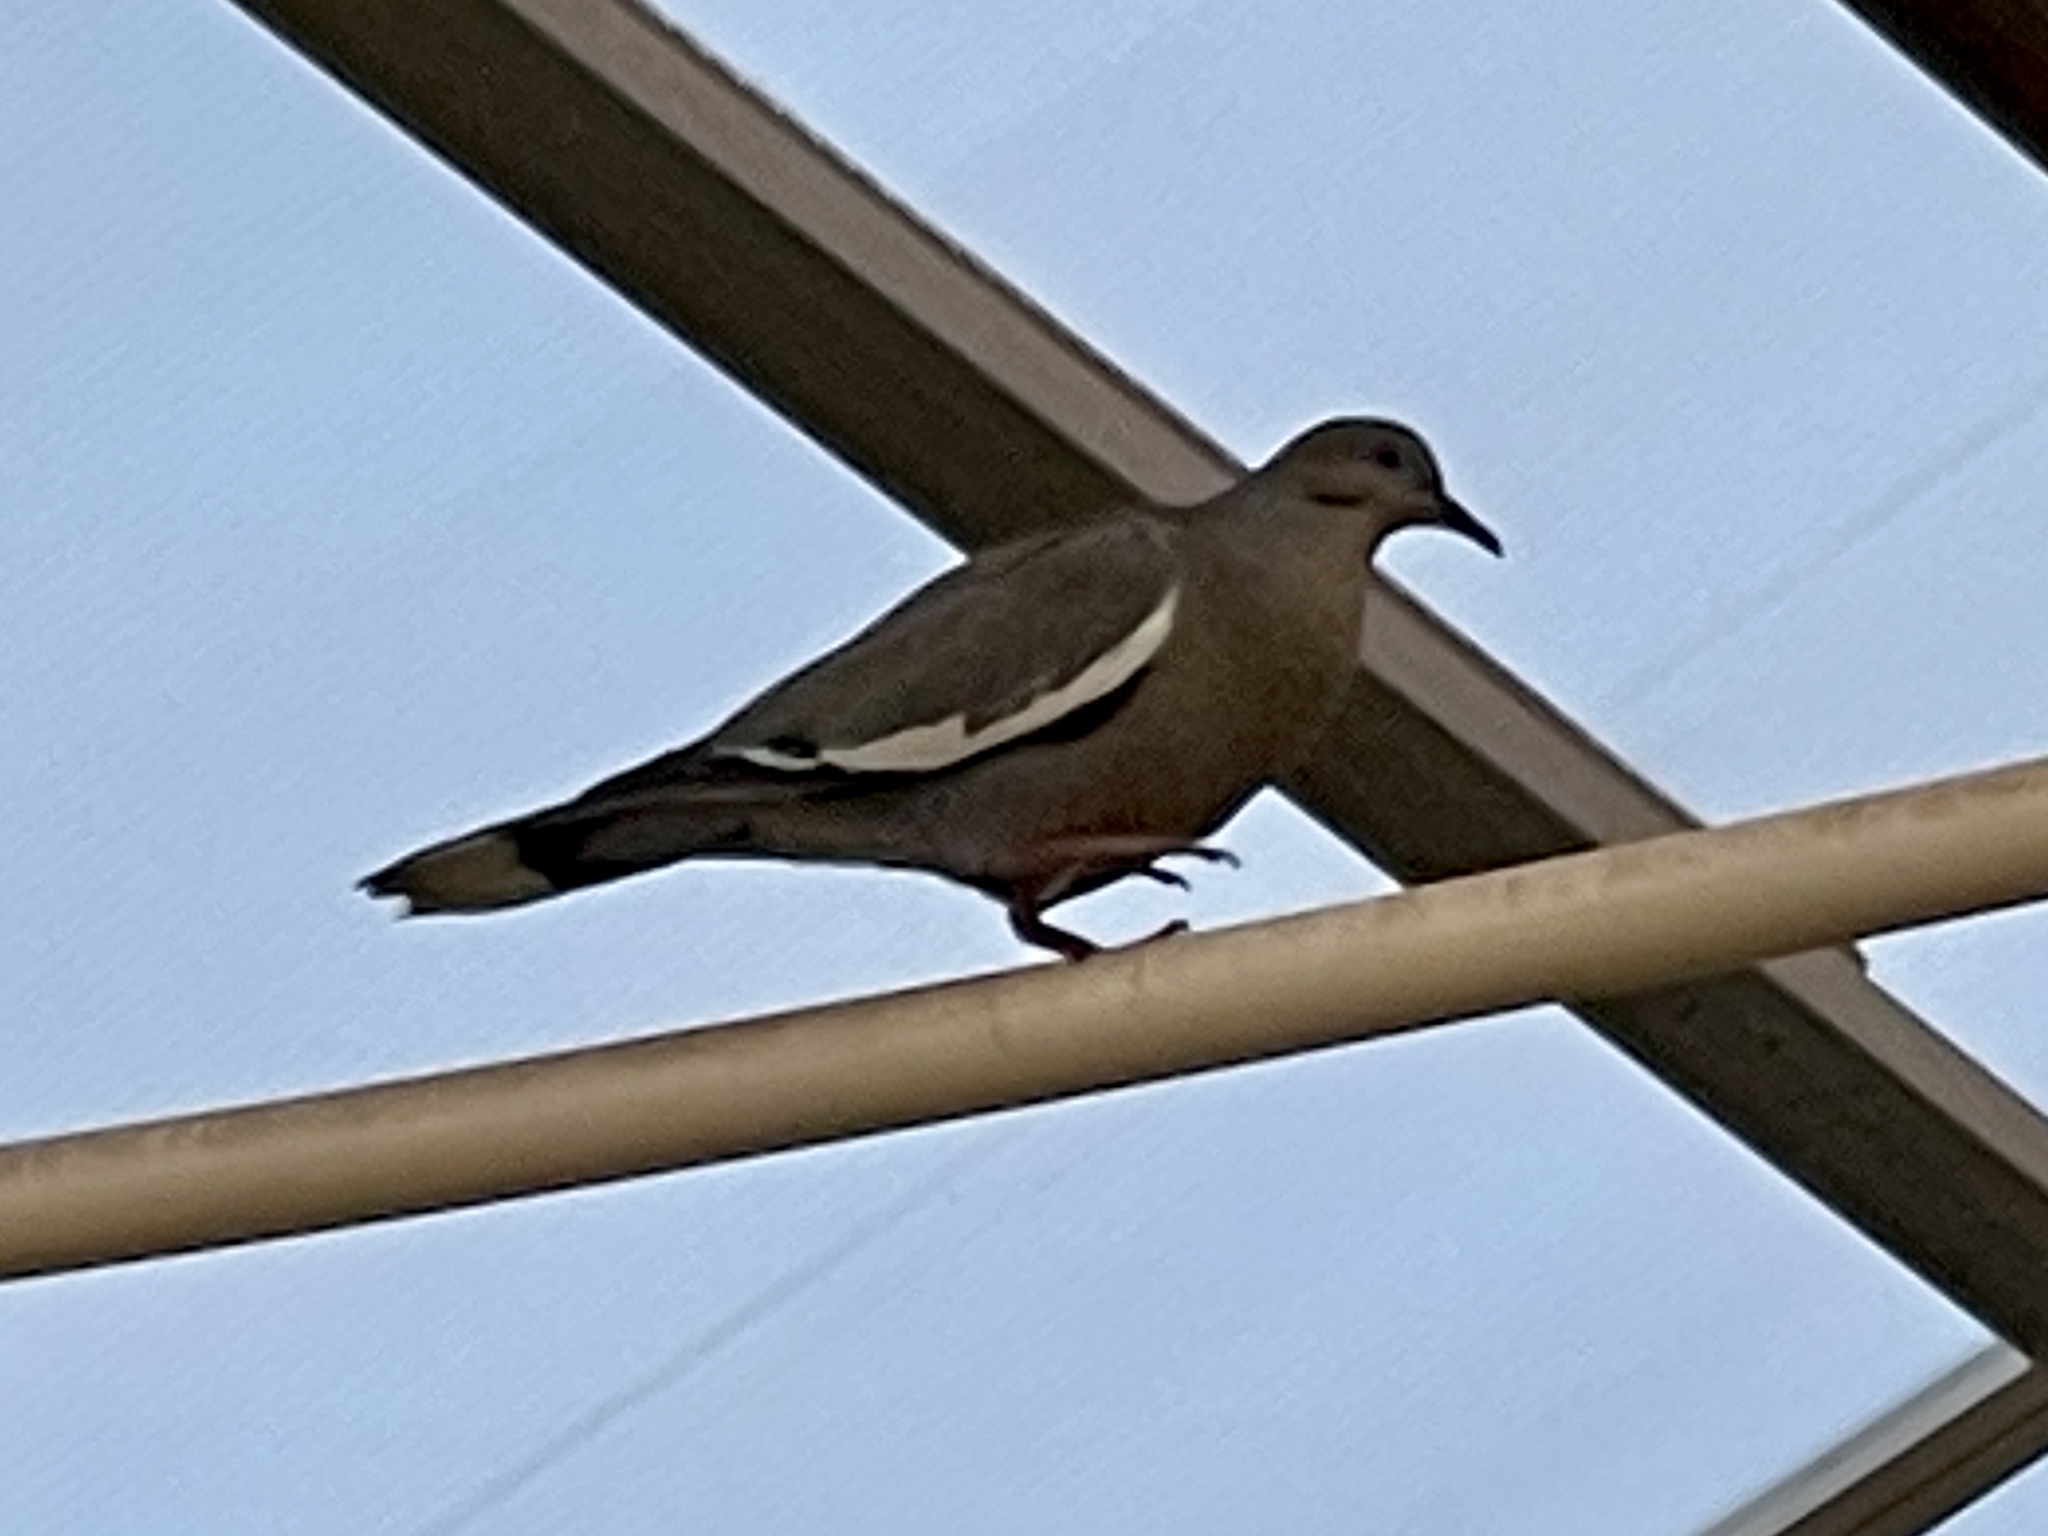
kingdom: Animalia
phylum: Chordata
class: Aves
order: Columbiformes
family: Columbidae
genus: Zenaida
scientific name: Zenaida asiatica
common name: White-winged dove
